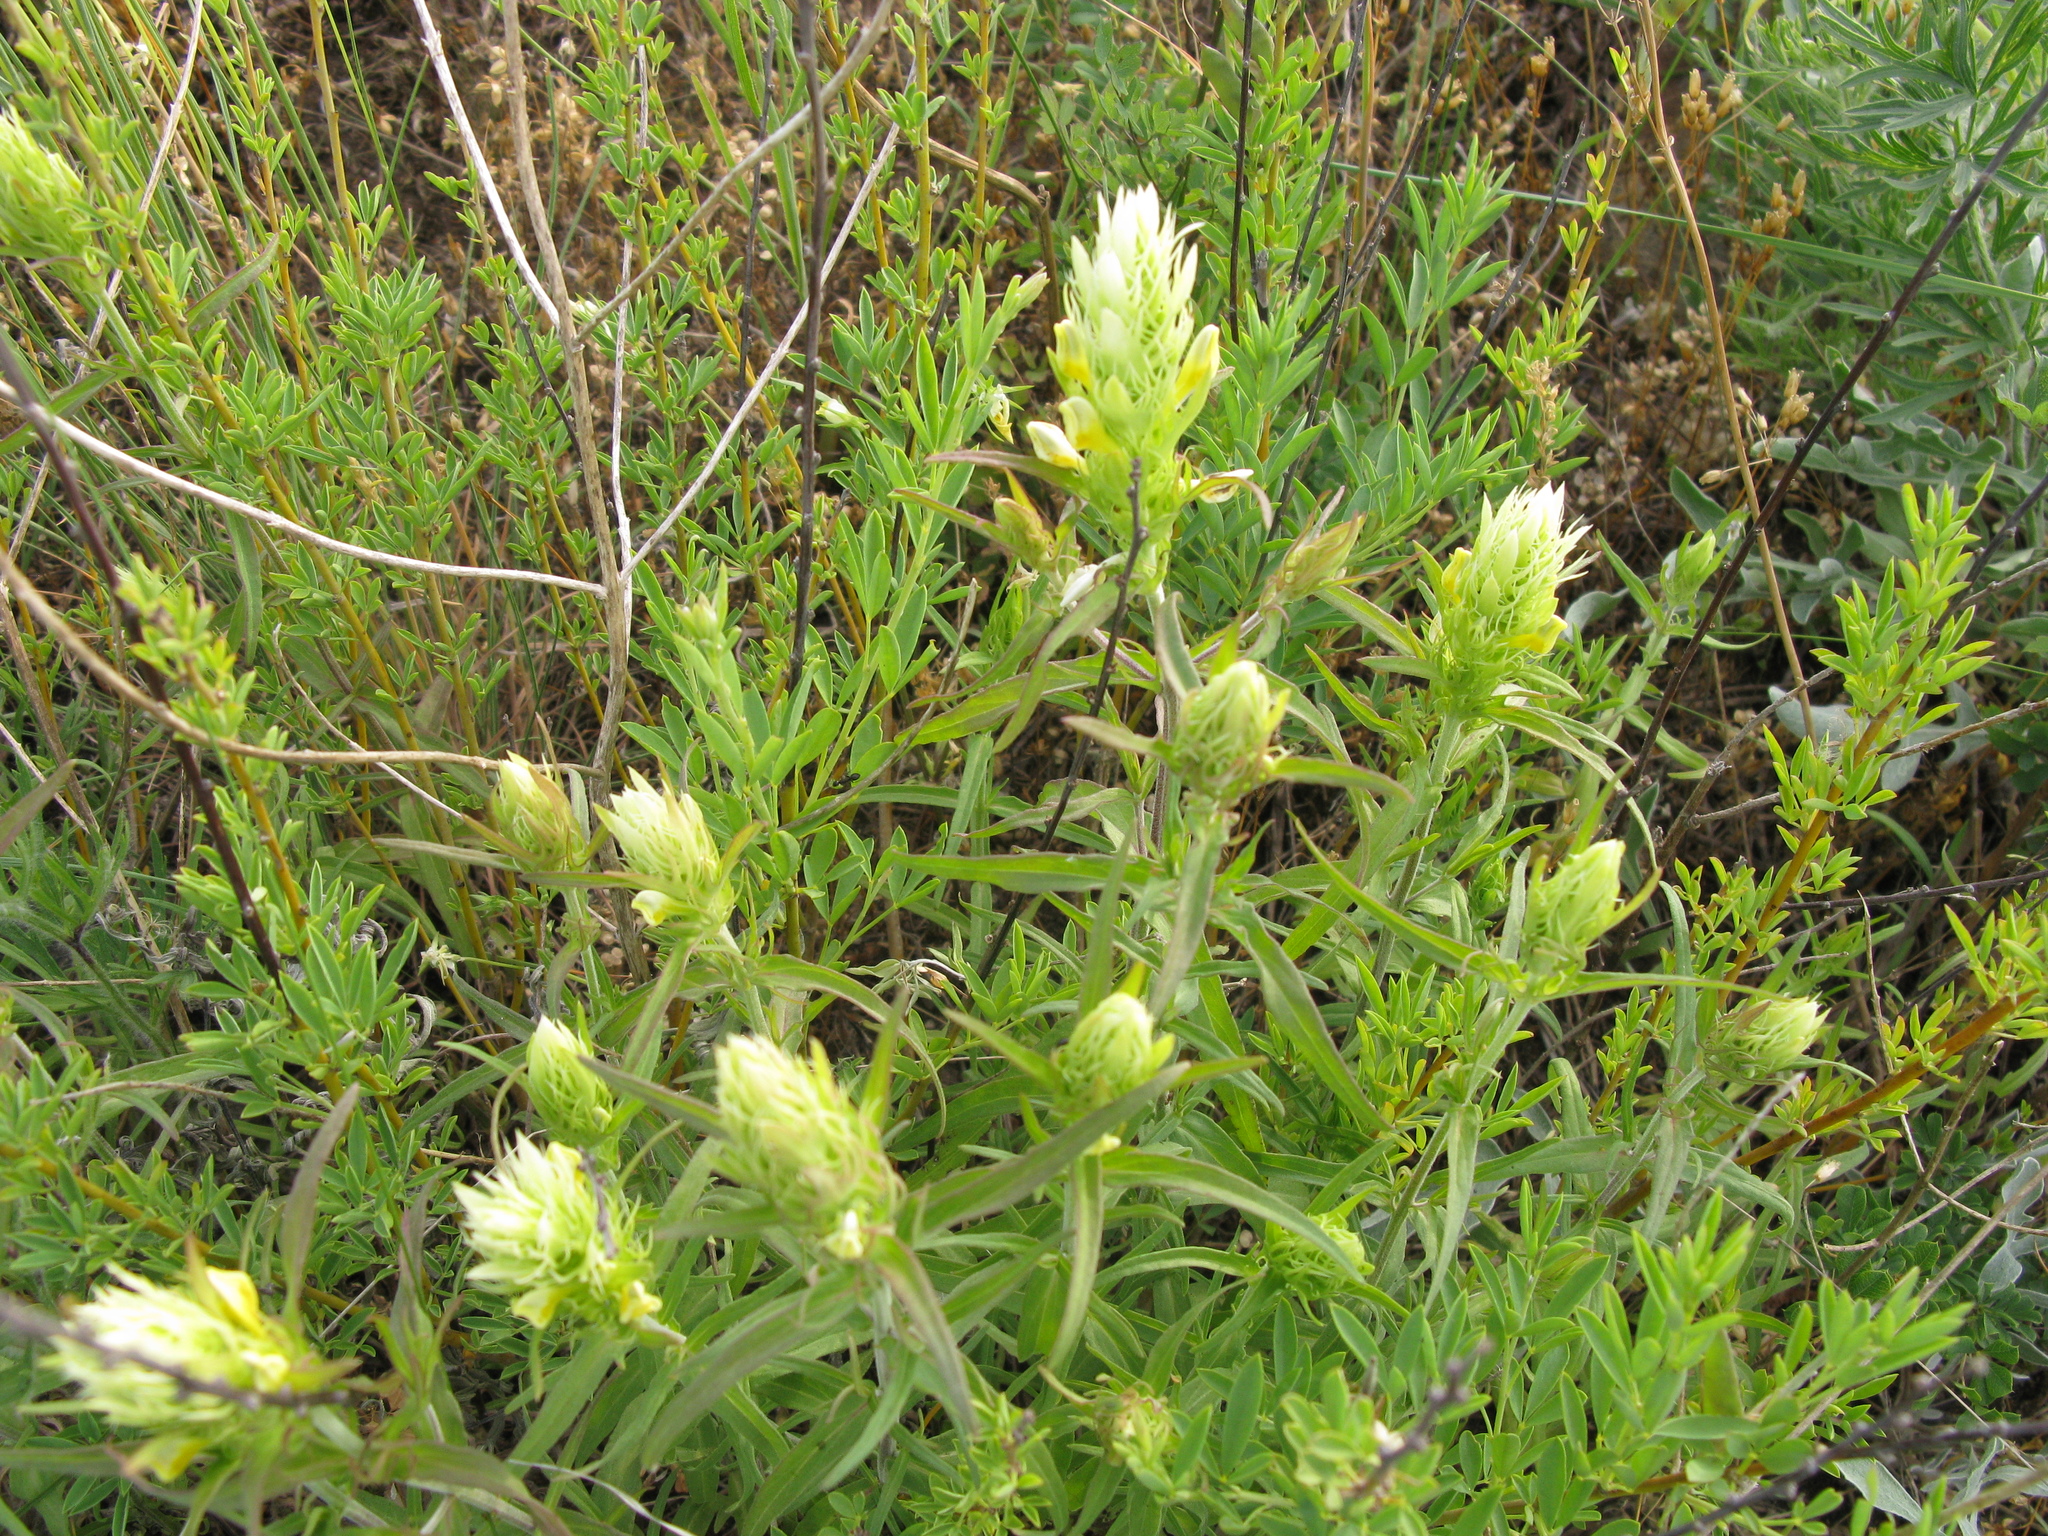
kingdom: Plantae
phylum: Tracheophyta
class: Magnoliopsida
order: Lamiales
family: Orobanchaceae
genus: Melampyrum
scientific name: Melampyrum arvense
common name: Field cow-wheat
